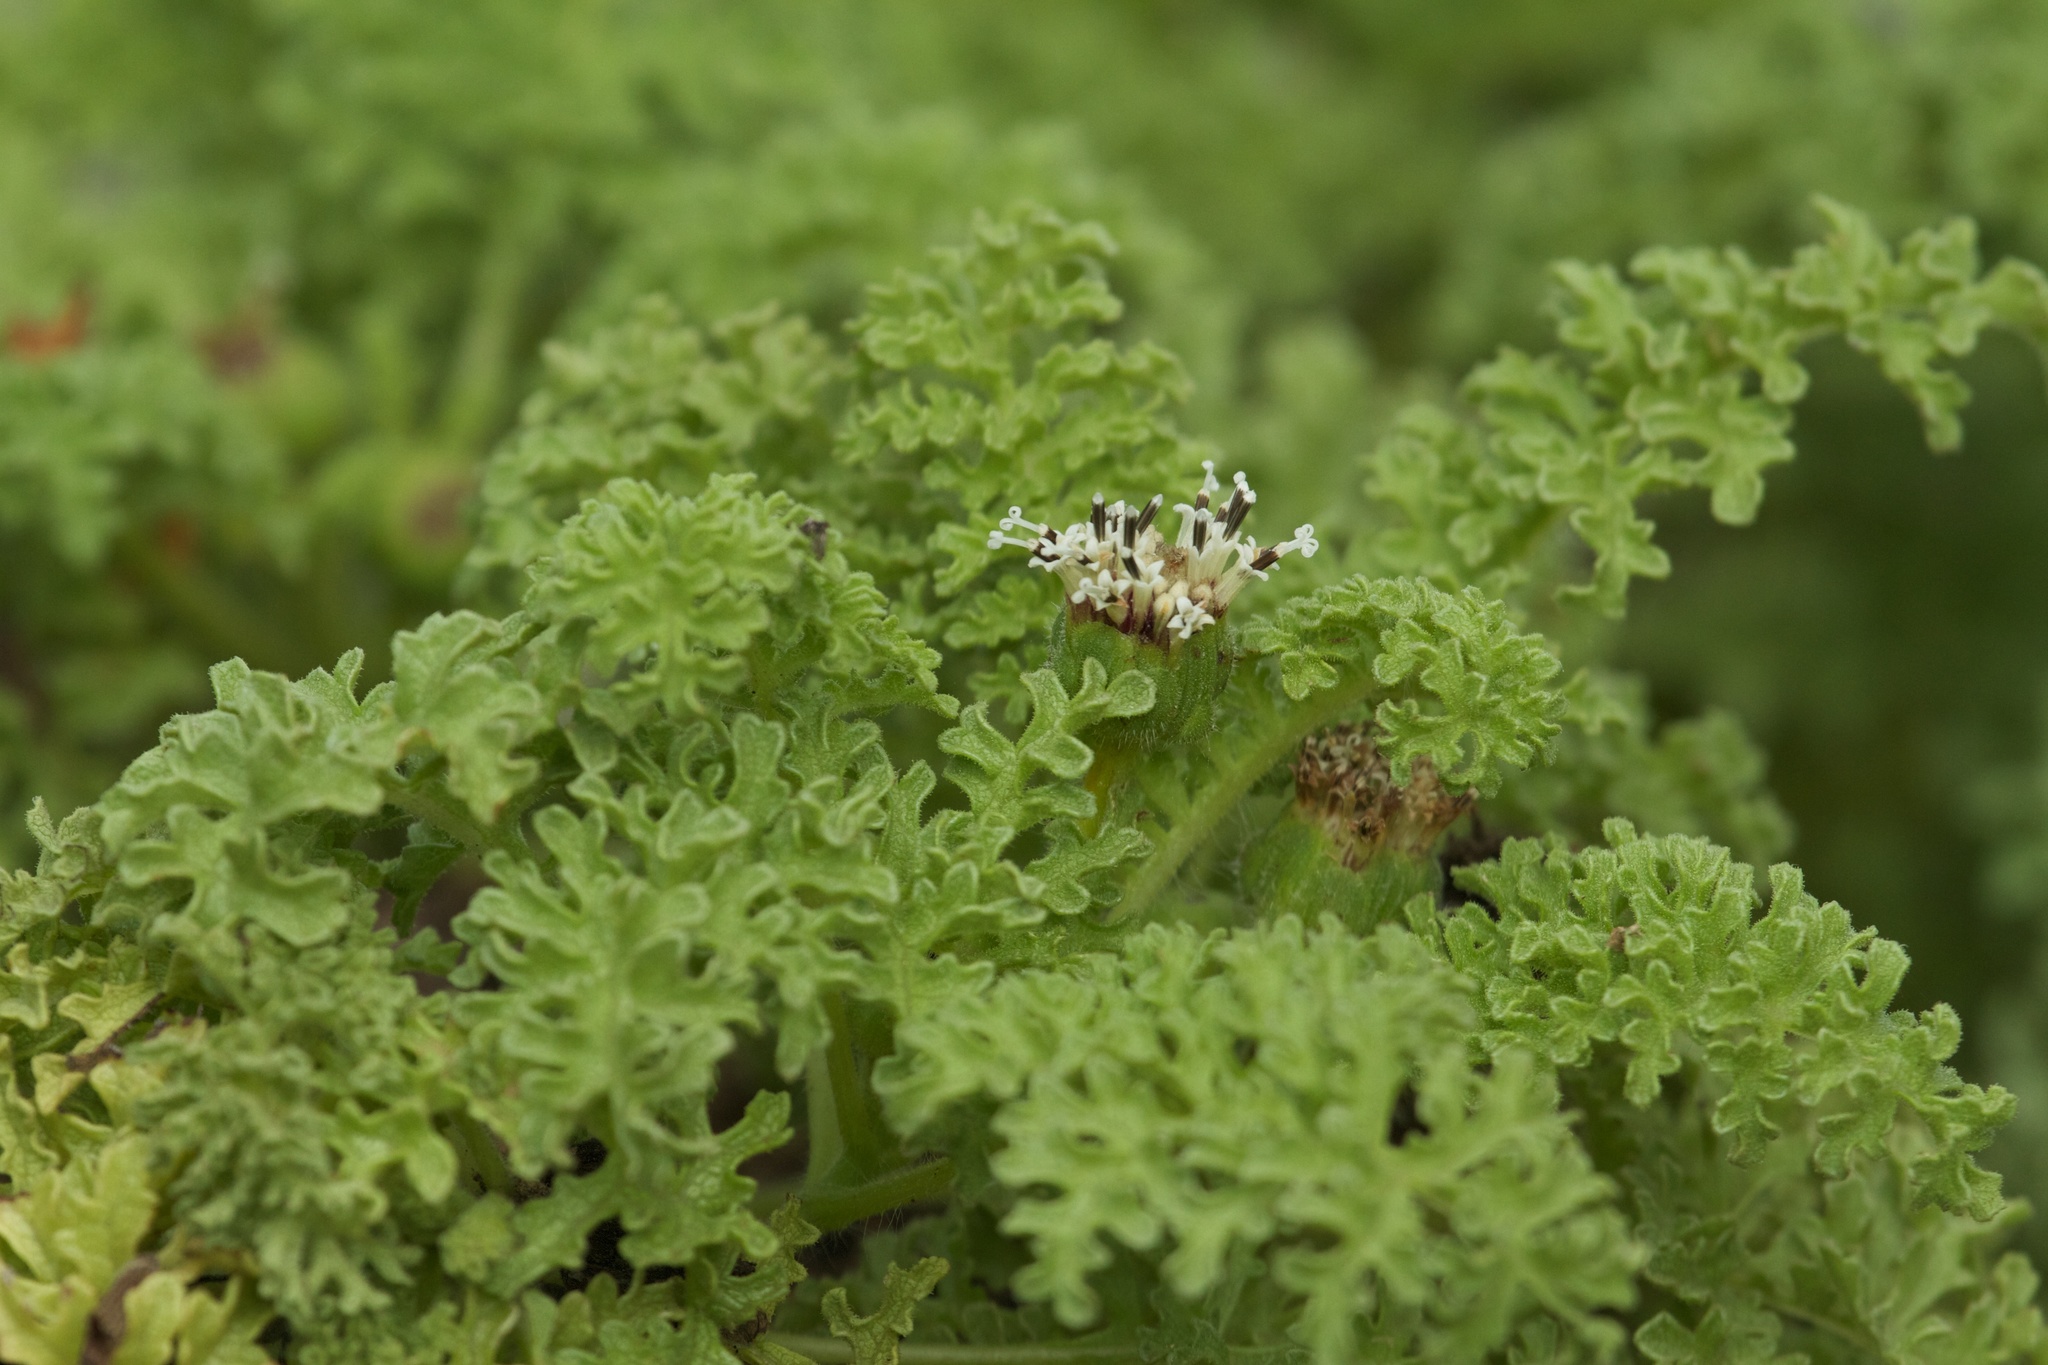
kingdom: Plantae
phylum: Tracheophyta
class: Magnoliopsida
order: Asterales
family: Asteraceae
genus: Scalesia
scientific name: Scalesia helleri
